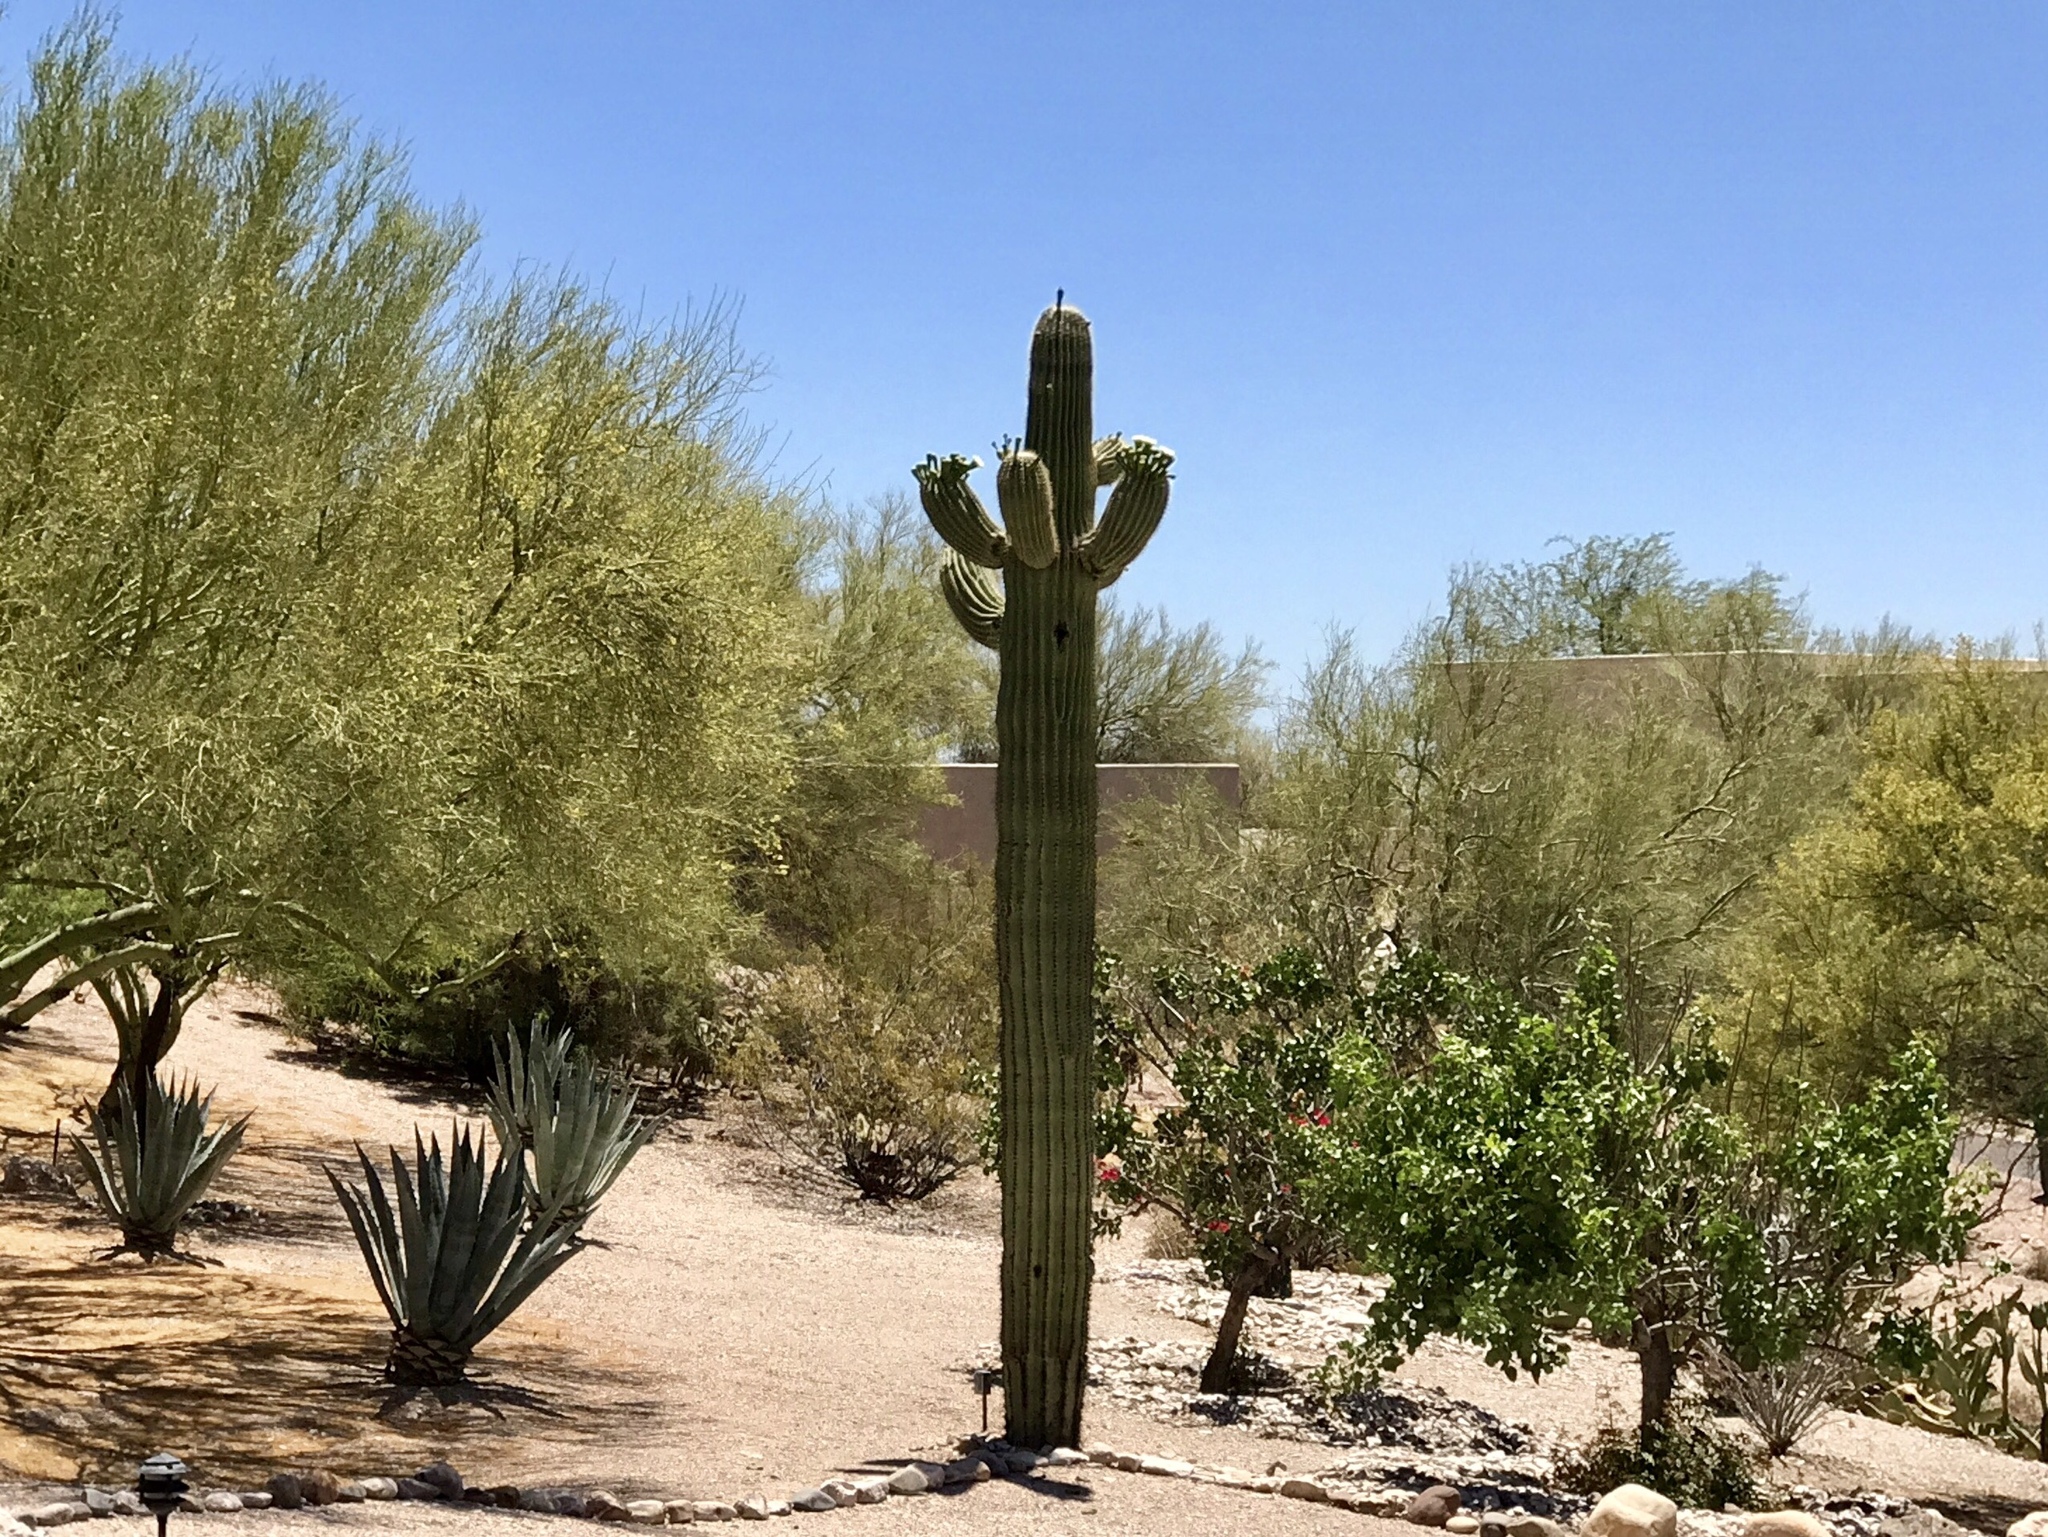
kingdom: Plantae
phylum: Tracheophyta
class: Magnoliopsida
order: Caryophyllales
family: Cactaceae
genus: Carnegiea
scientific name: Carnegiea gigantea
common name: Saguaro
